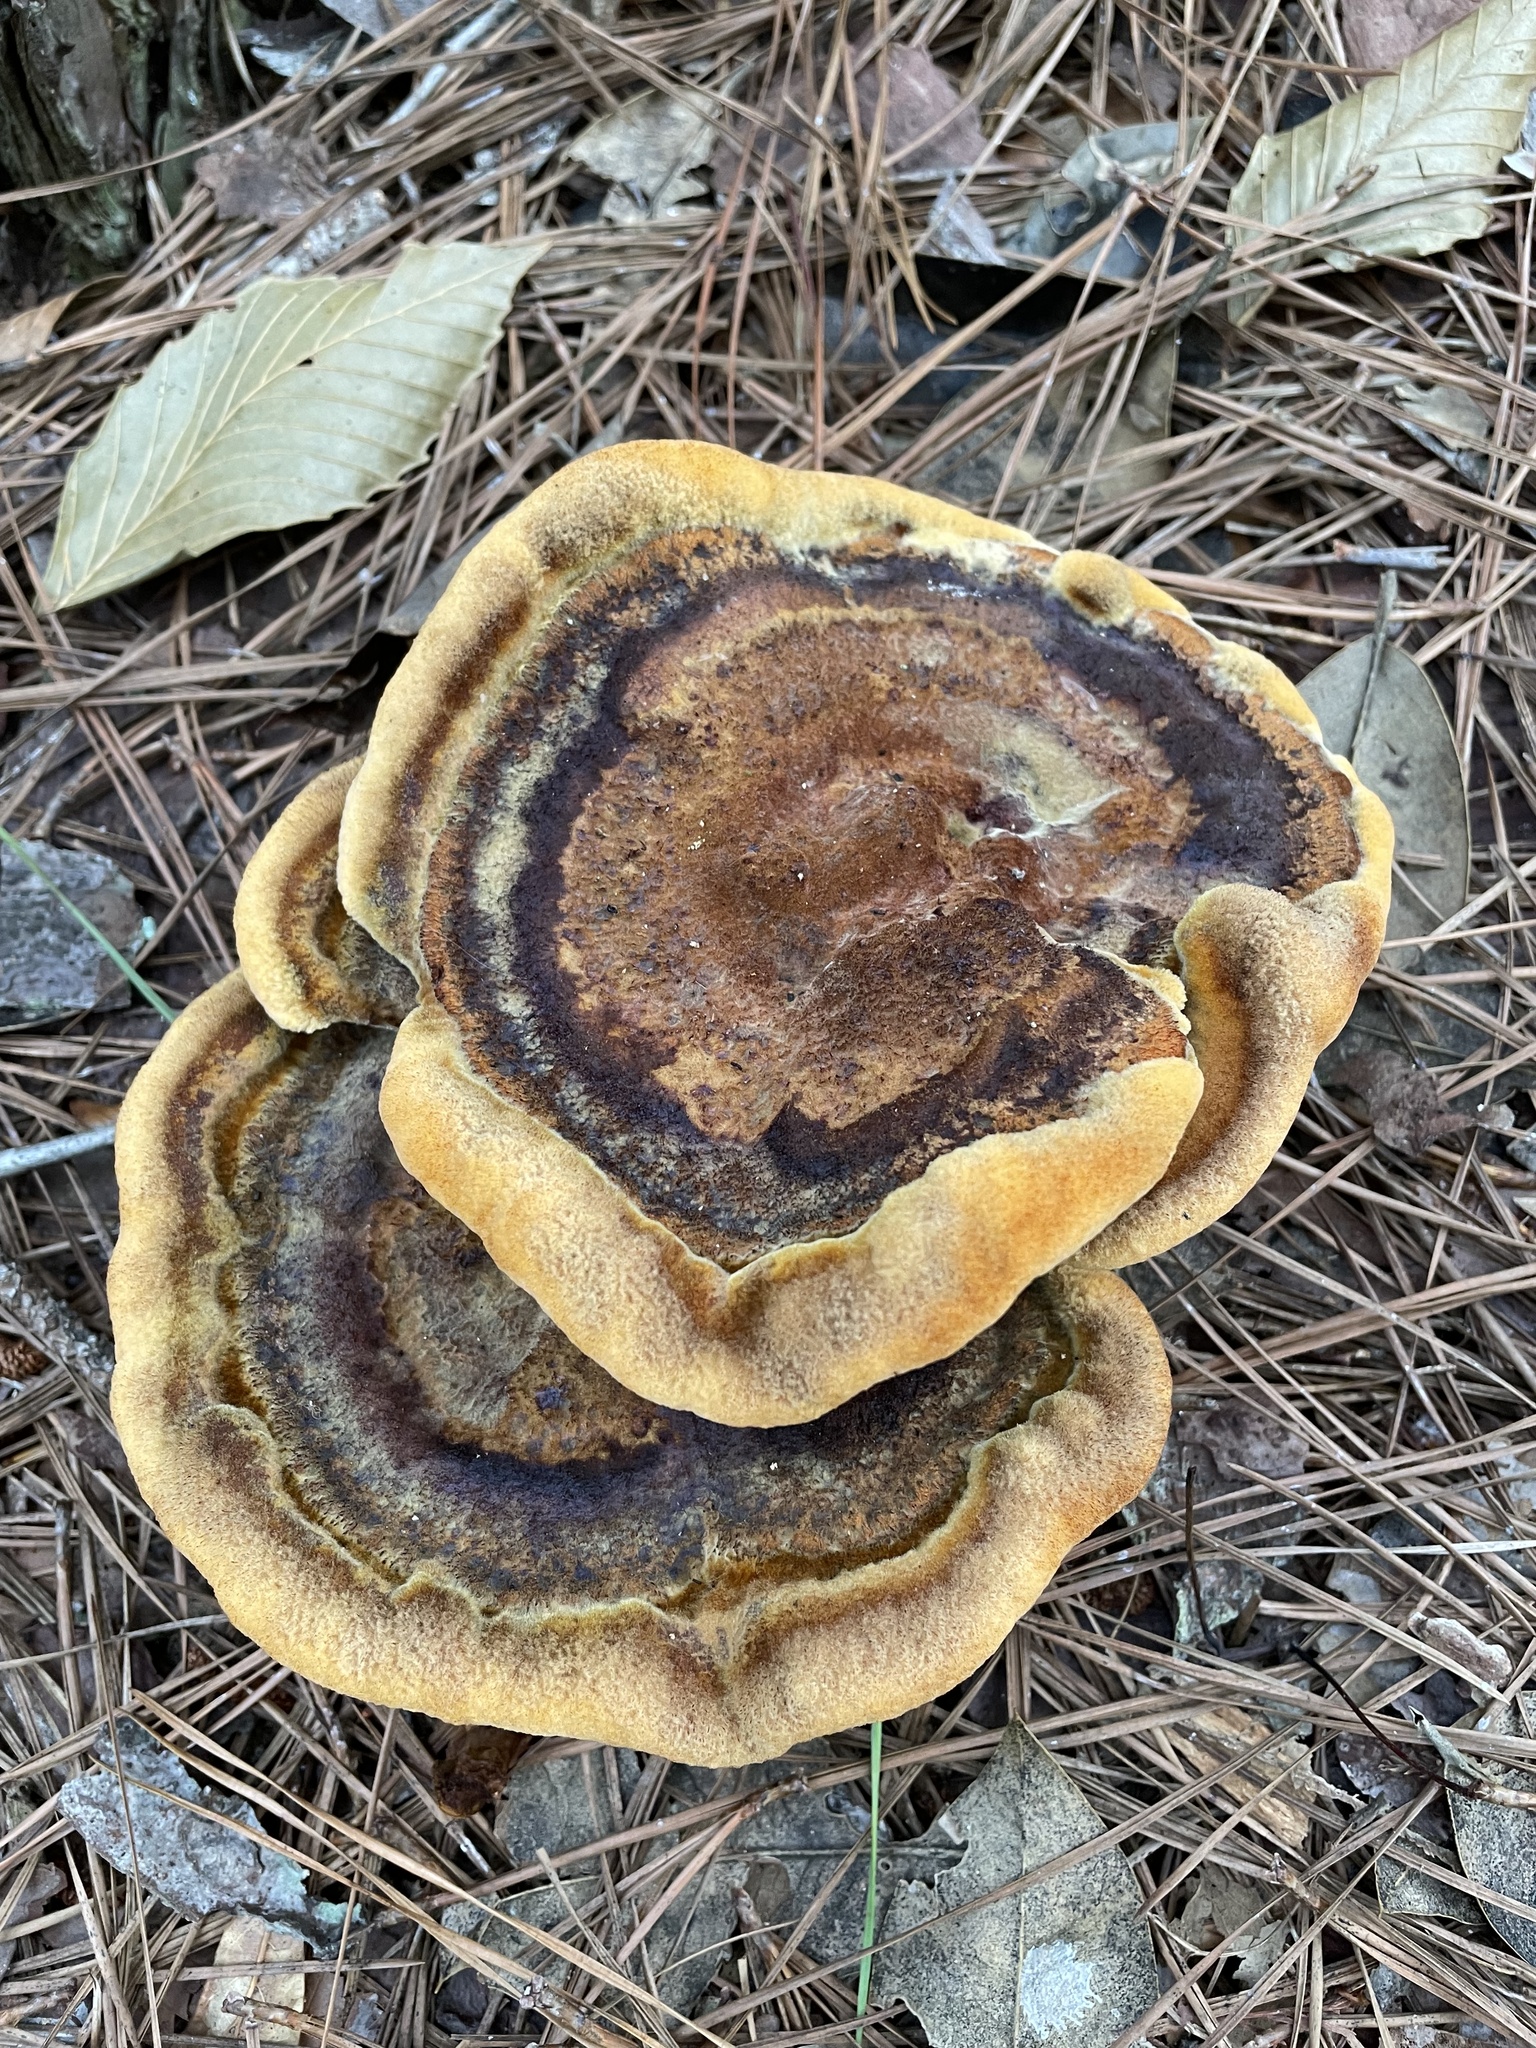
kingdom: Fungi
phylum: Basidiomycota
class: Agaricomycetes
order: Polyporales
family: Laetiporaceae
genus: Phaeolus
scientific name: Phaeolus schweinitzii
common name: Dyer's mazegill
